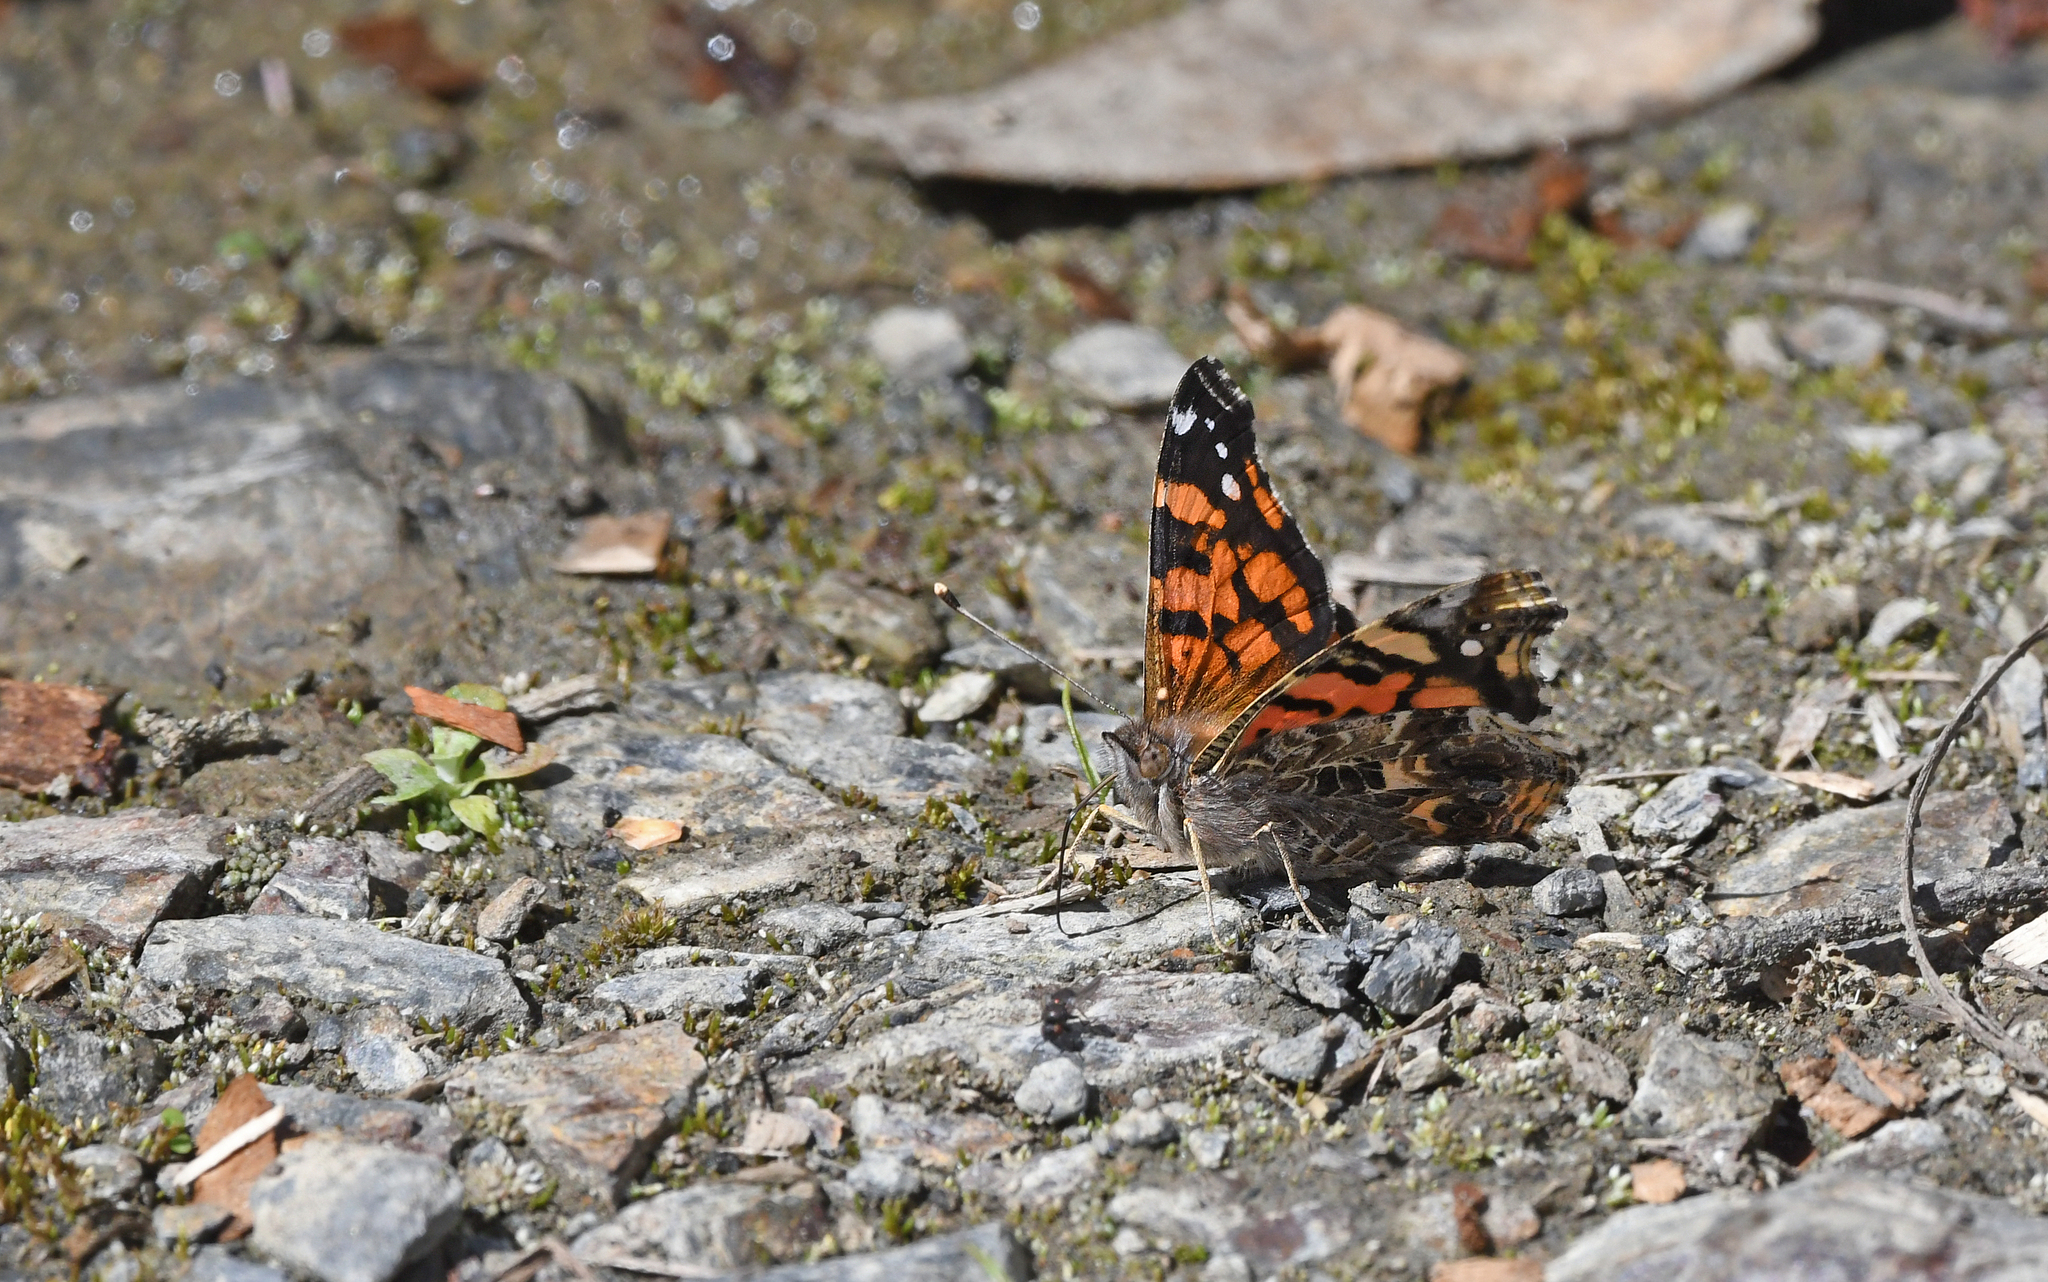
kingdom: Animalia
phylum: Arthropoda
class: Insecta
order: Lepidoptera
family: Nymphalidae
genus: Vanessa
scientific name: Vanessa carye
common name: Subtropical lady
